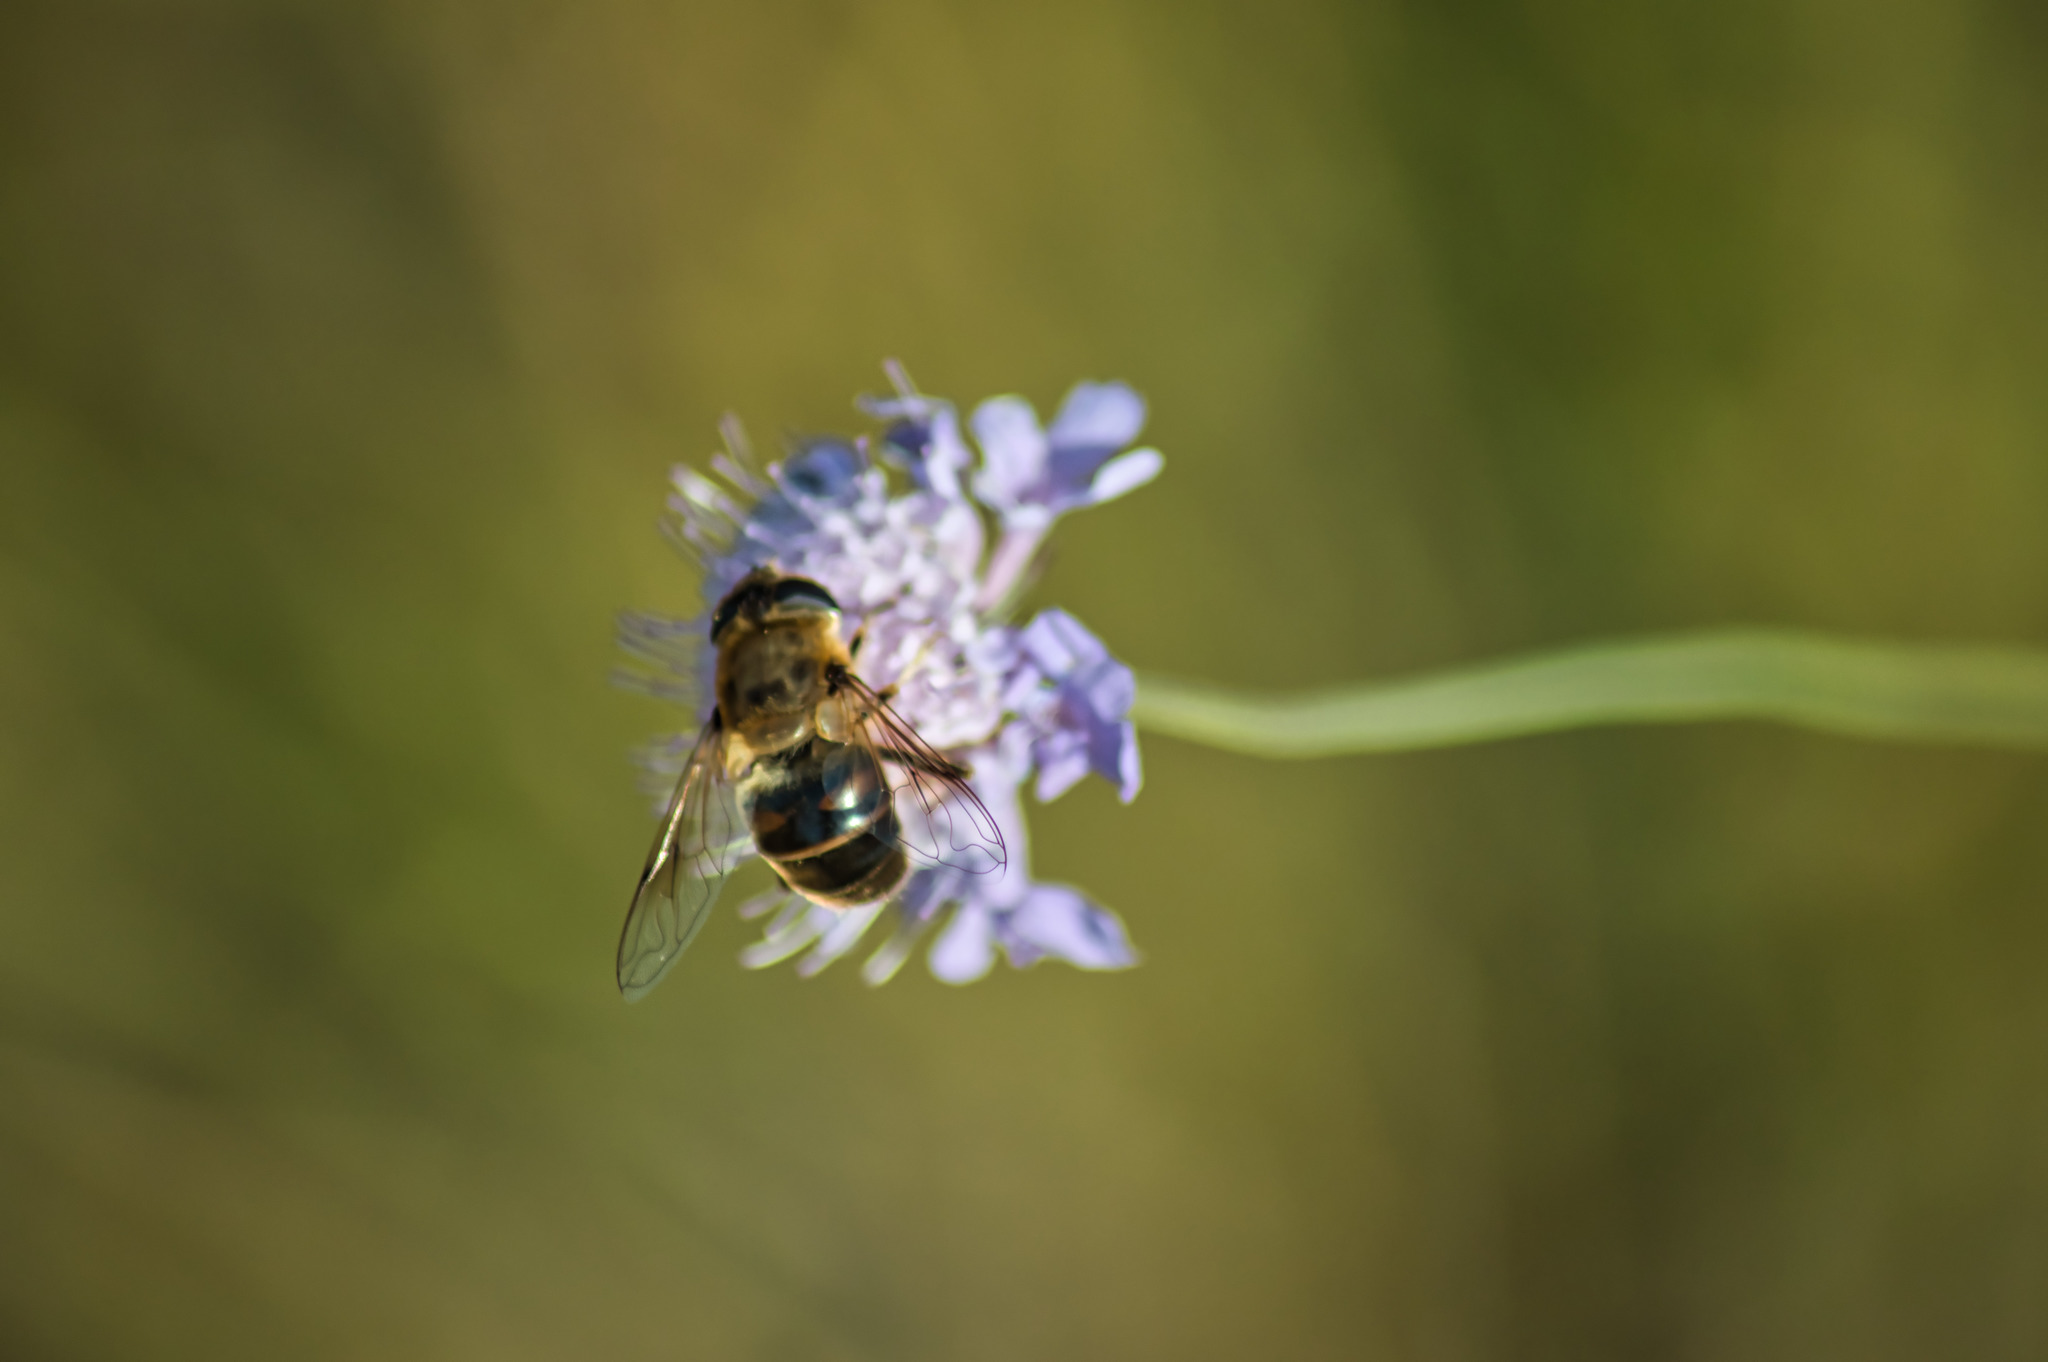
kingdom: Animalia
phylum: Arthropoda
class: Insecta
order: Diptera
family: Syrphidae
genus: Eristalis
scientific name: Eristalis tenax
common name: Drone fly
